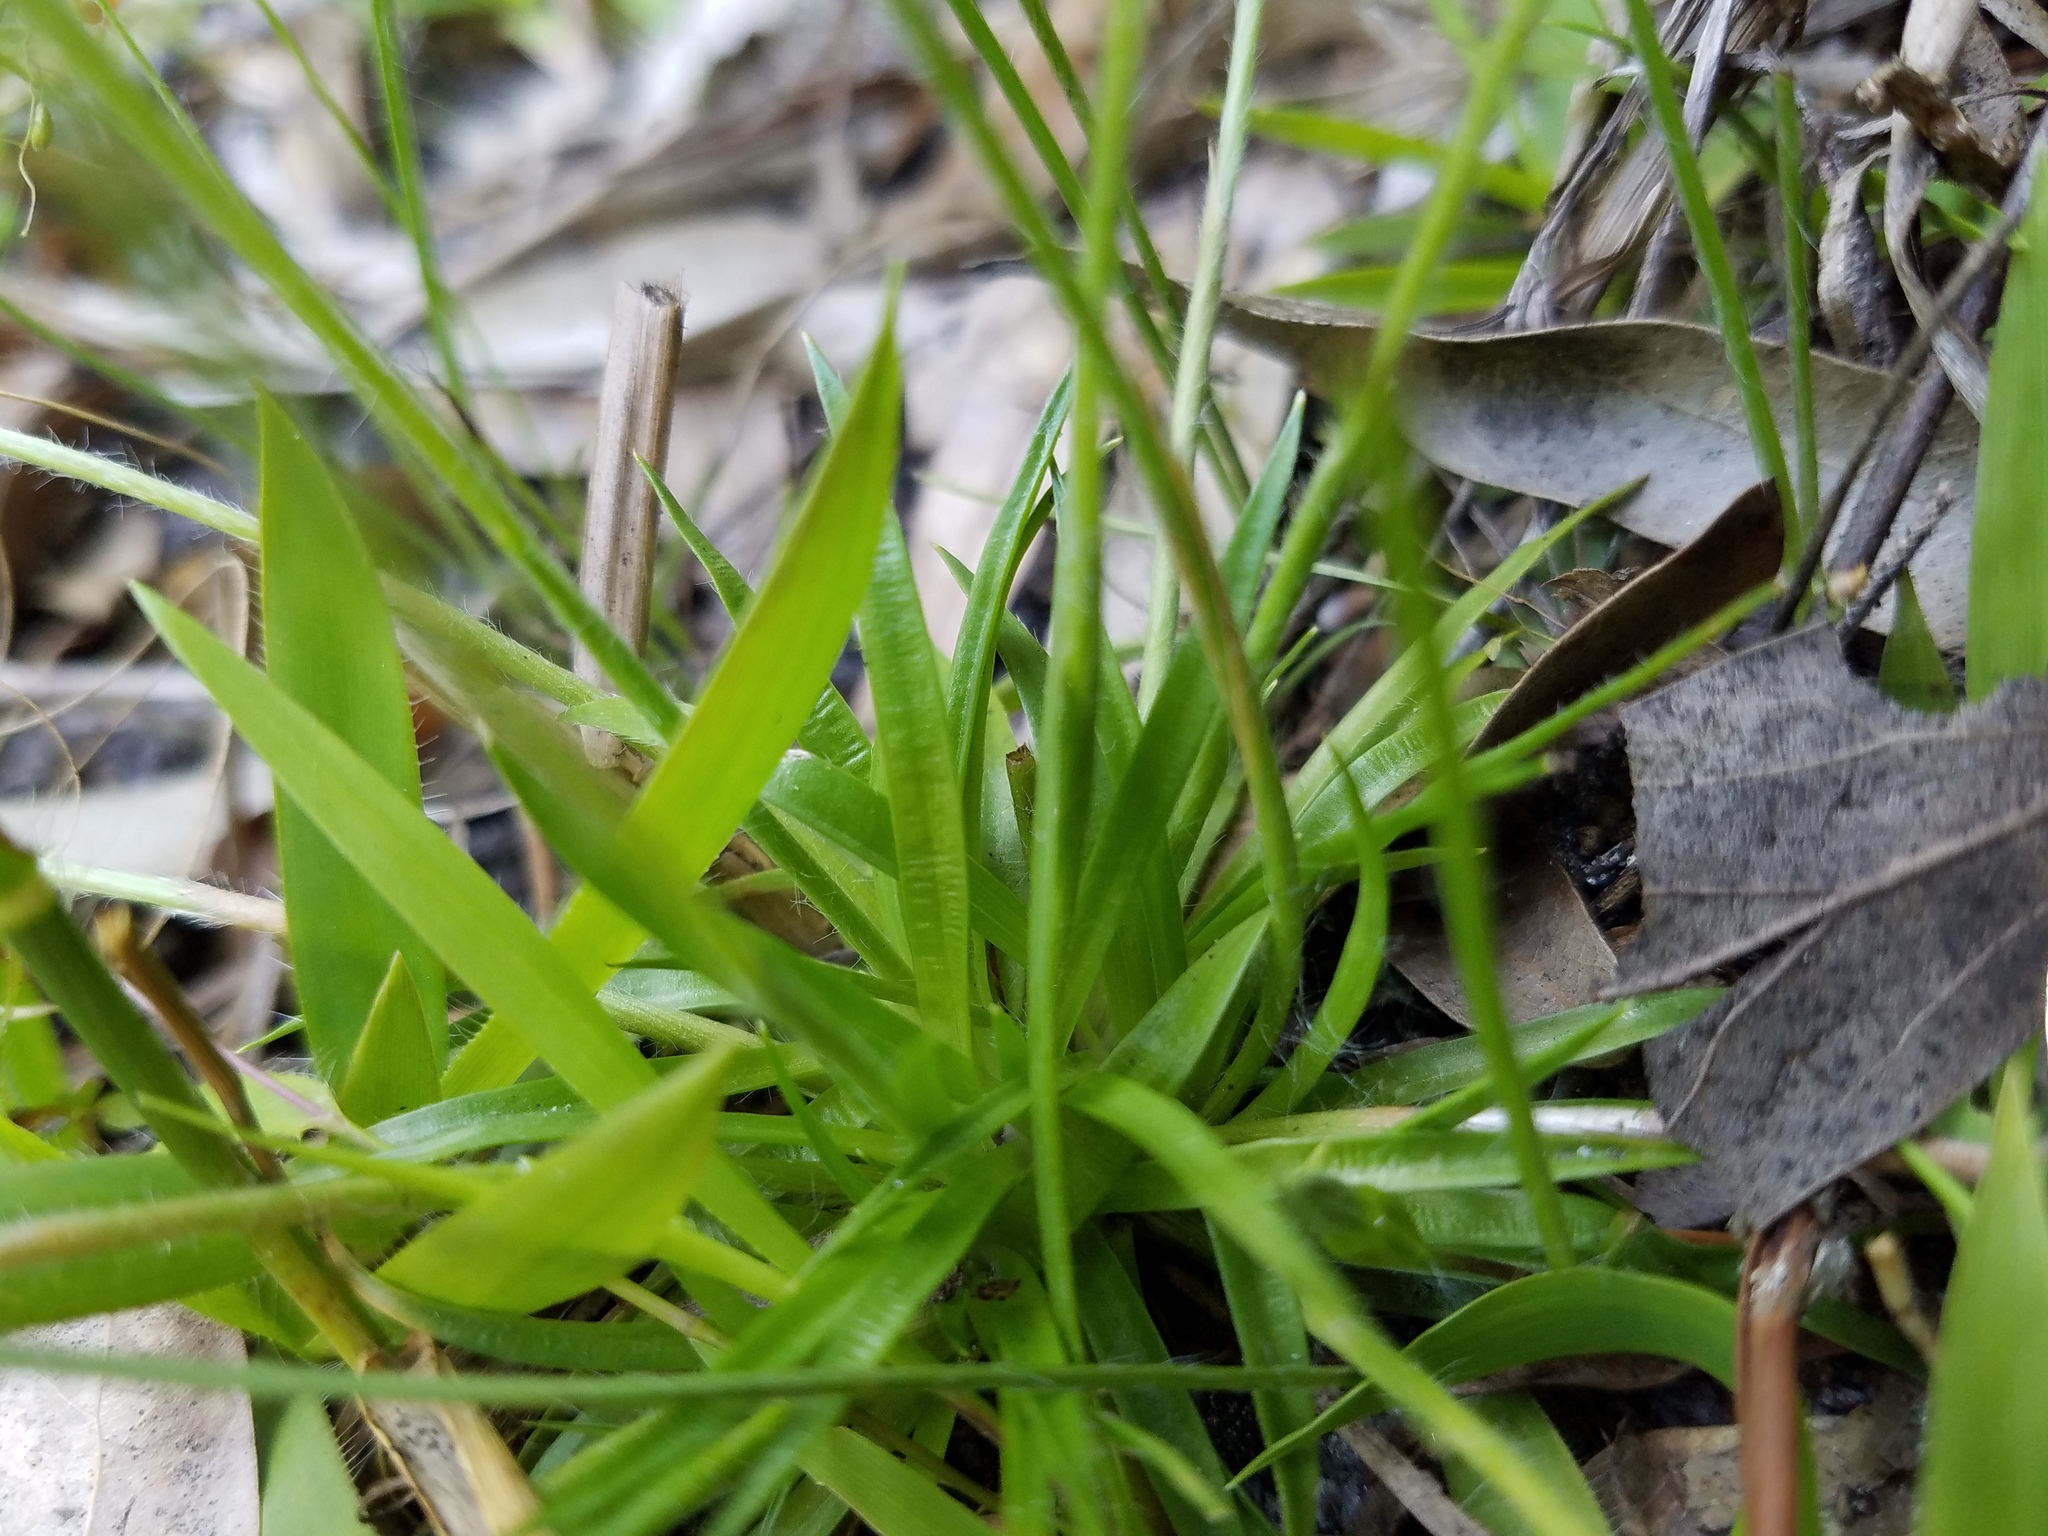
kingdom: Plantae
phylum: Tracheophyta
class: Liliopsida
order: Poales
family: Eriocaulaceae
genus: Paepalanthus
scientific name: Paepalanthus anceps
